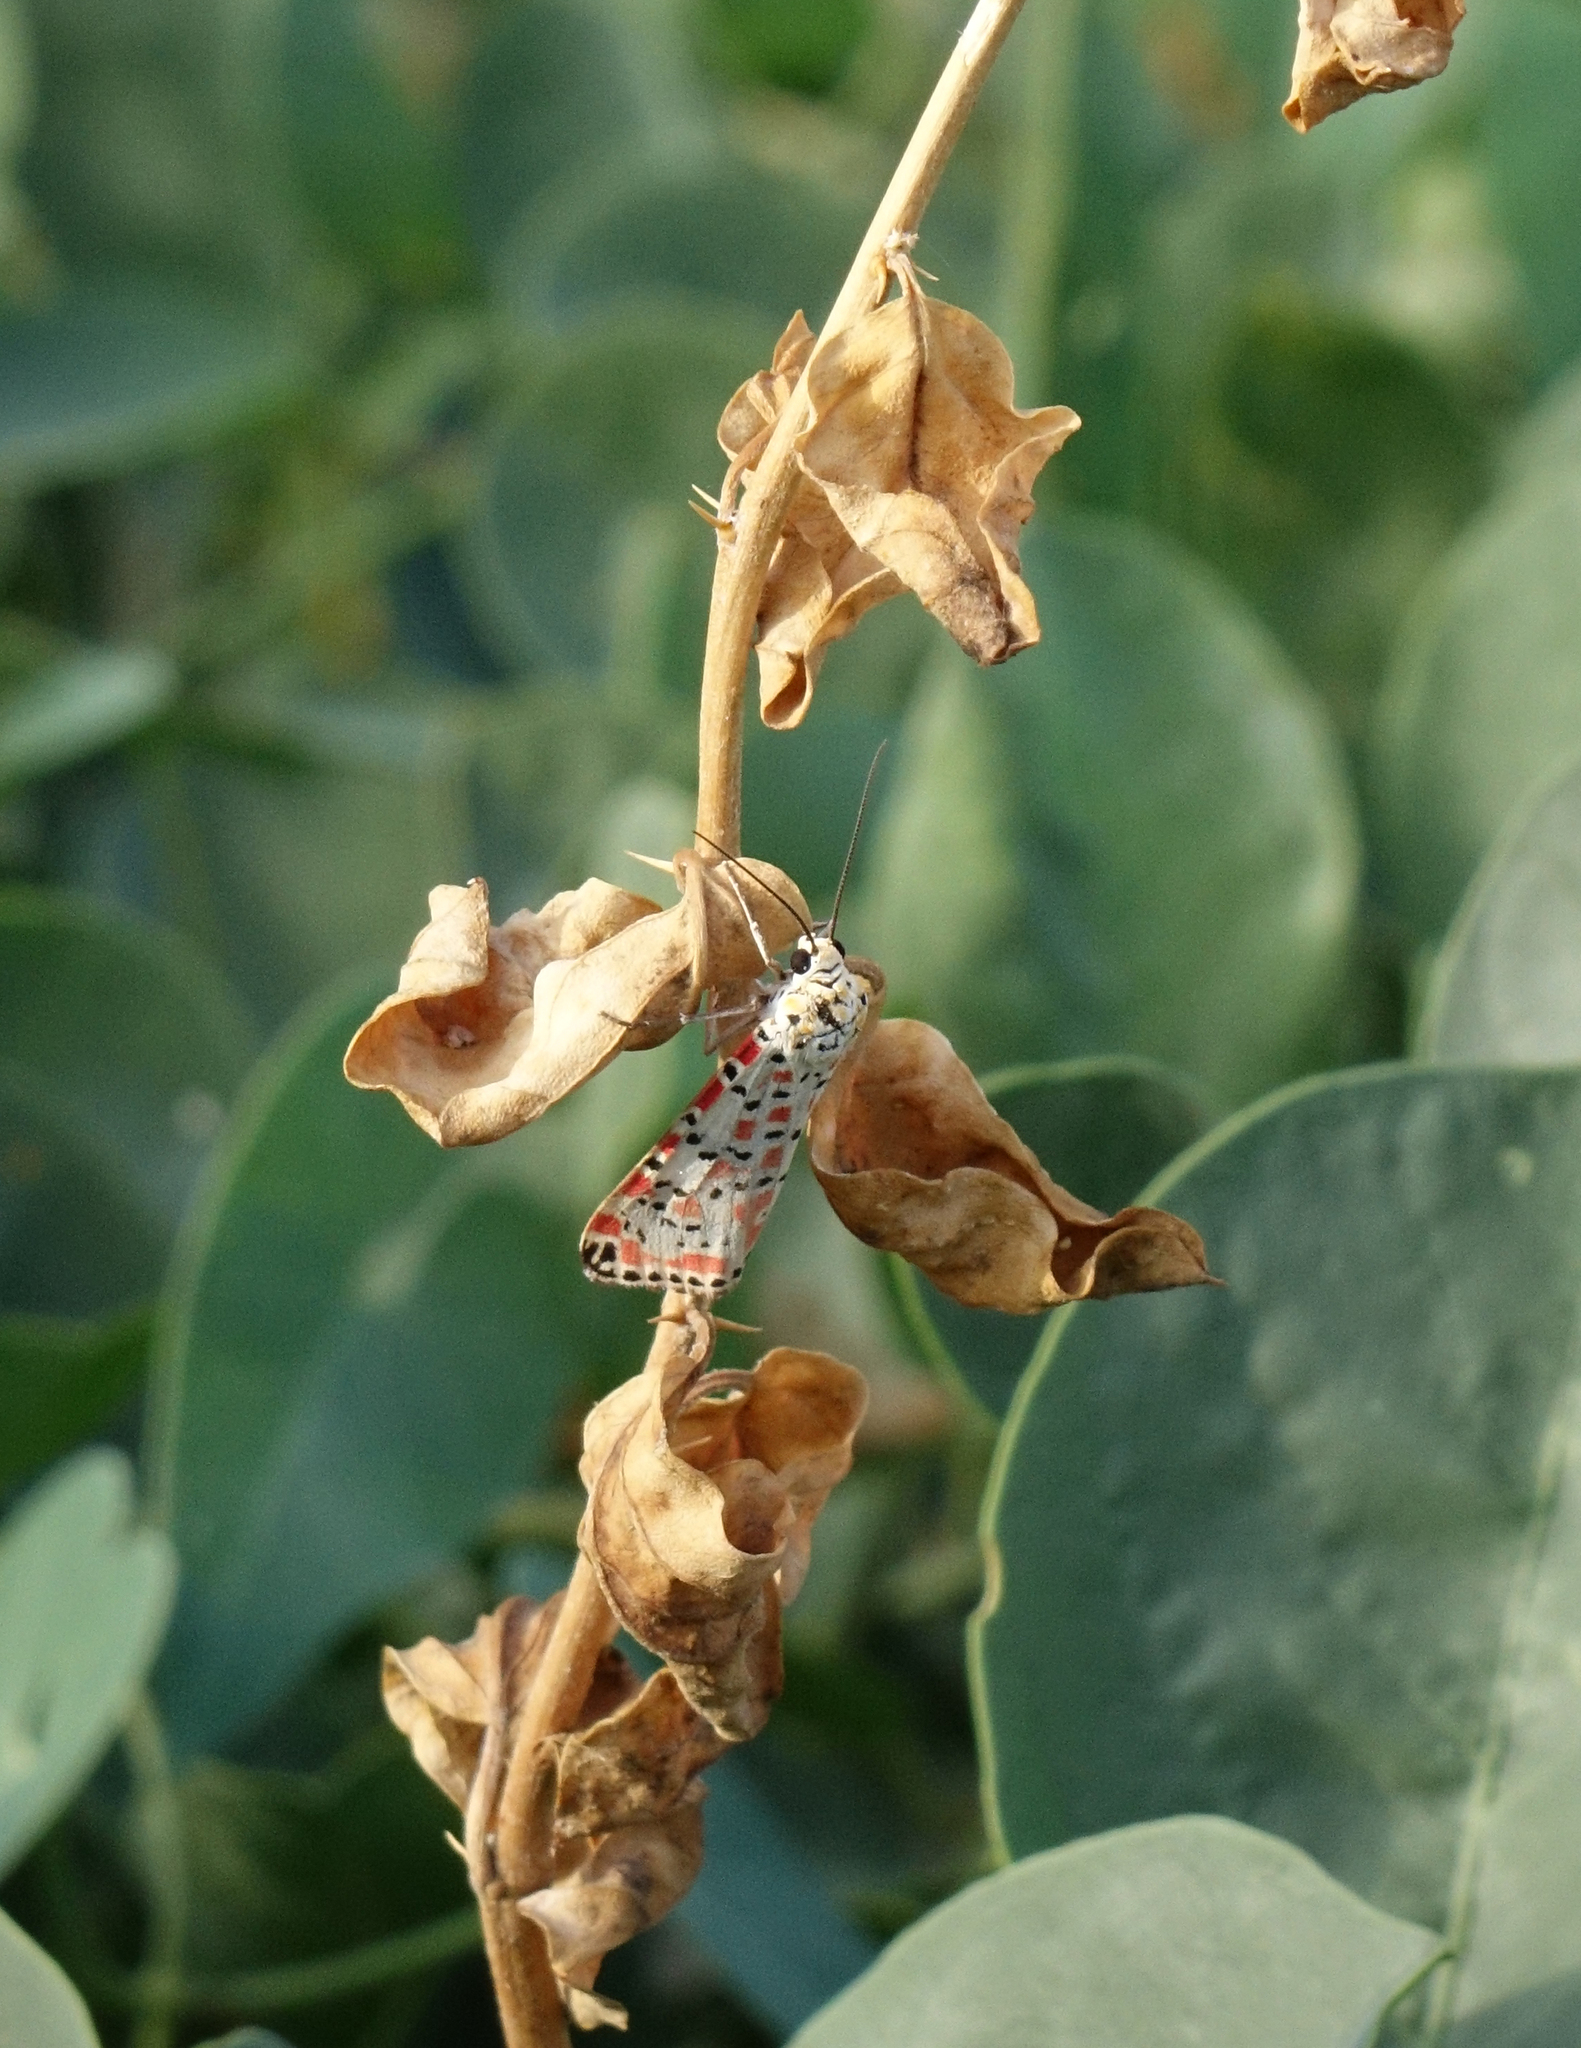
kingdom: Animalia
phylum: Arthropoda
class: Insecta
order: Lepidoptera
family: Erebidae
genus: Utetheisa
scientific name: Utetheisa pulchella
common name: Crimson speckled
